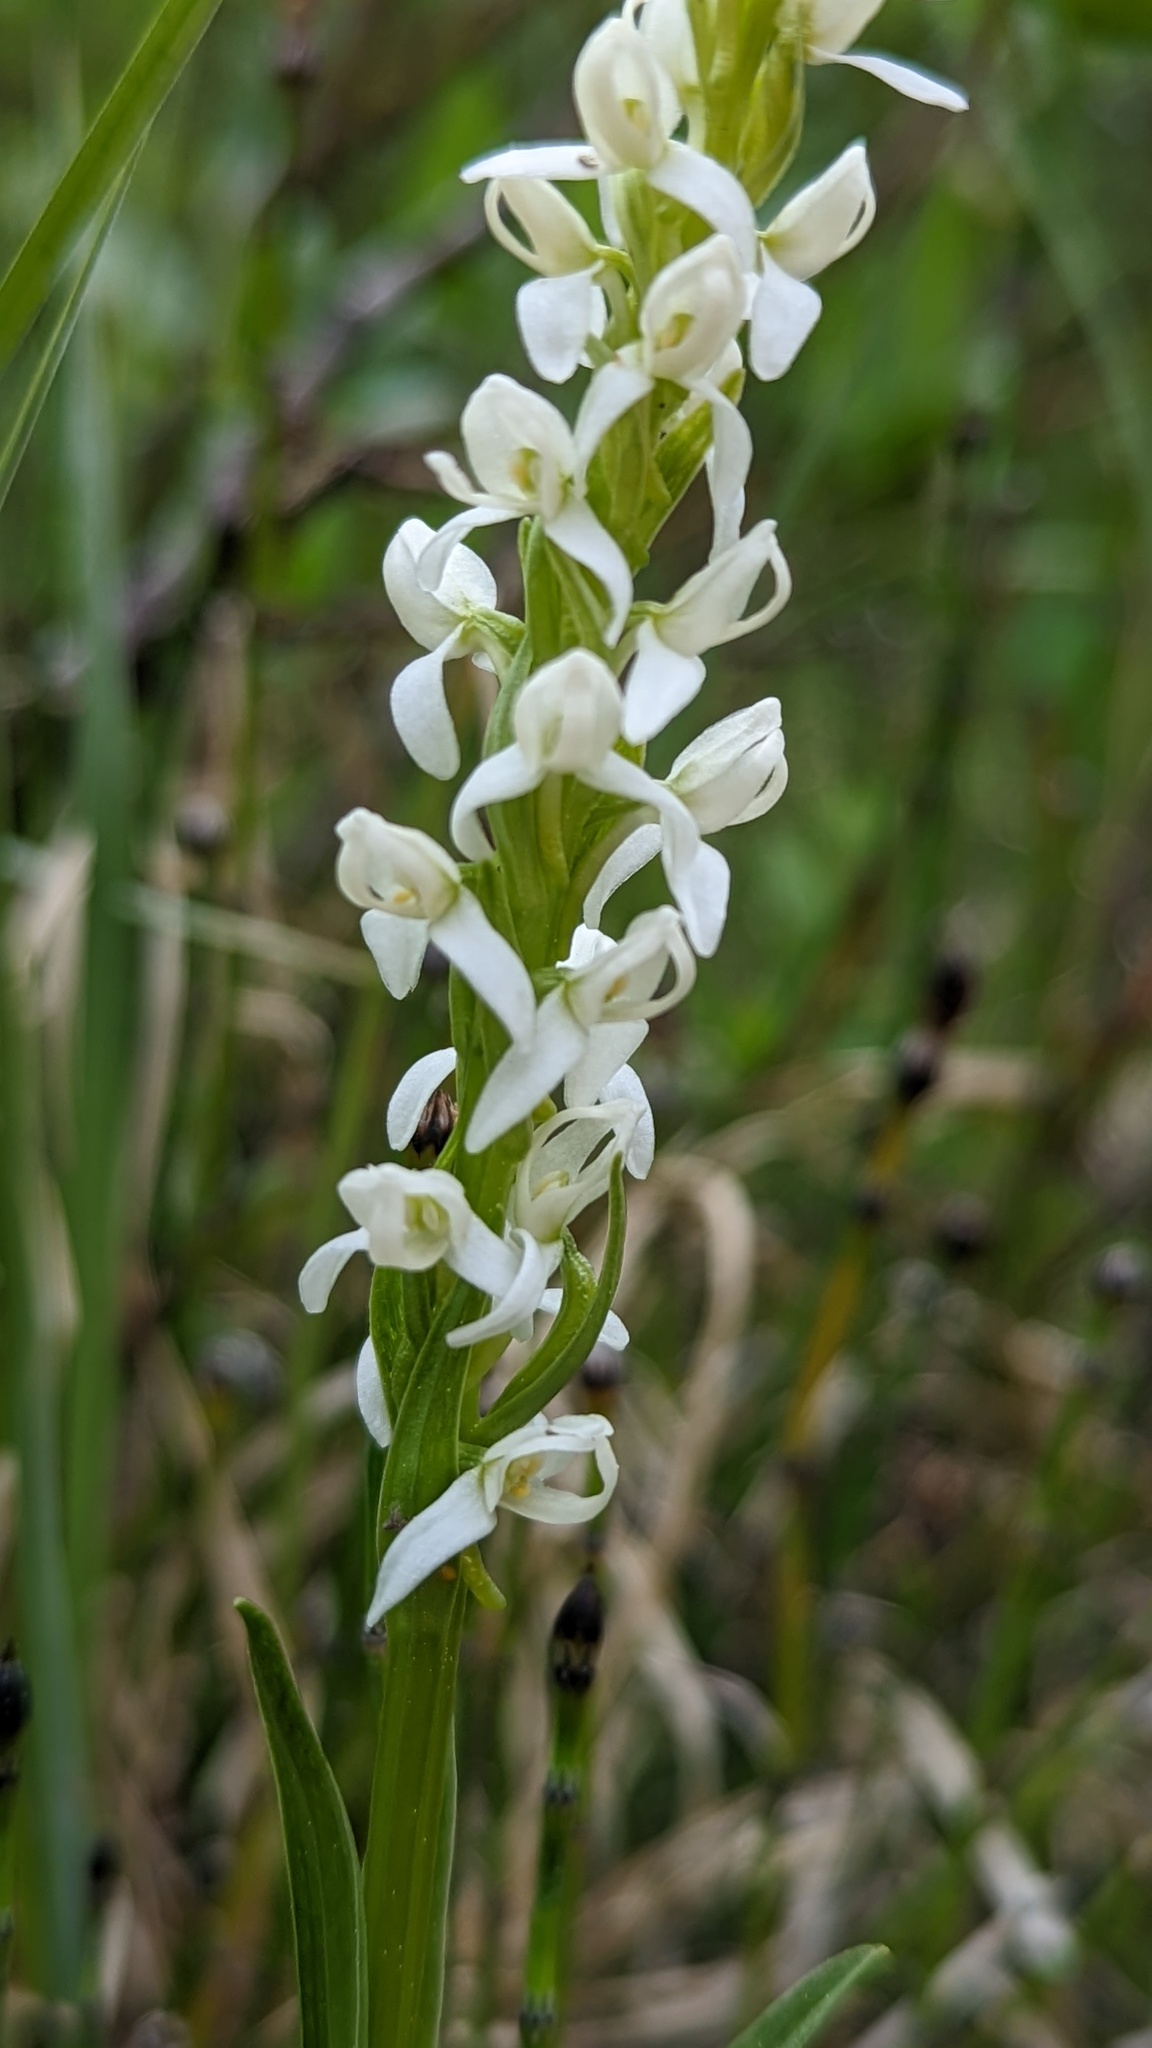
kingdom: Plantae
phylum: Tracheophyta
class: Liliopsida
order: Asparagales
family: Orchidaceae
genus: Platanthera
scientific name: Platanthera dilatata
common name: Bog candles
